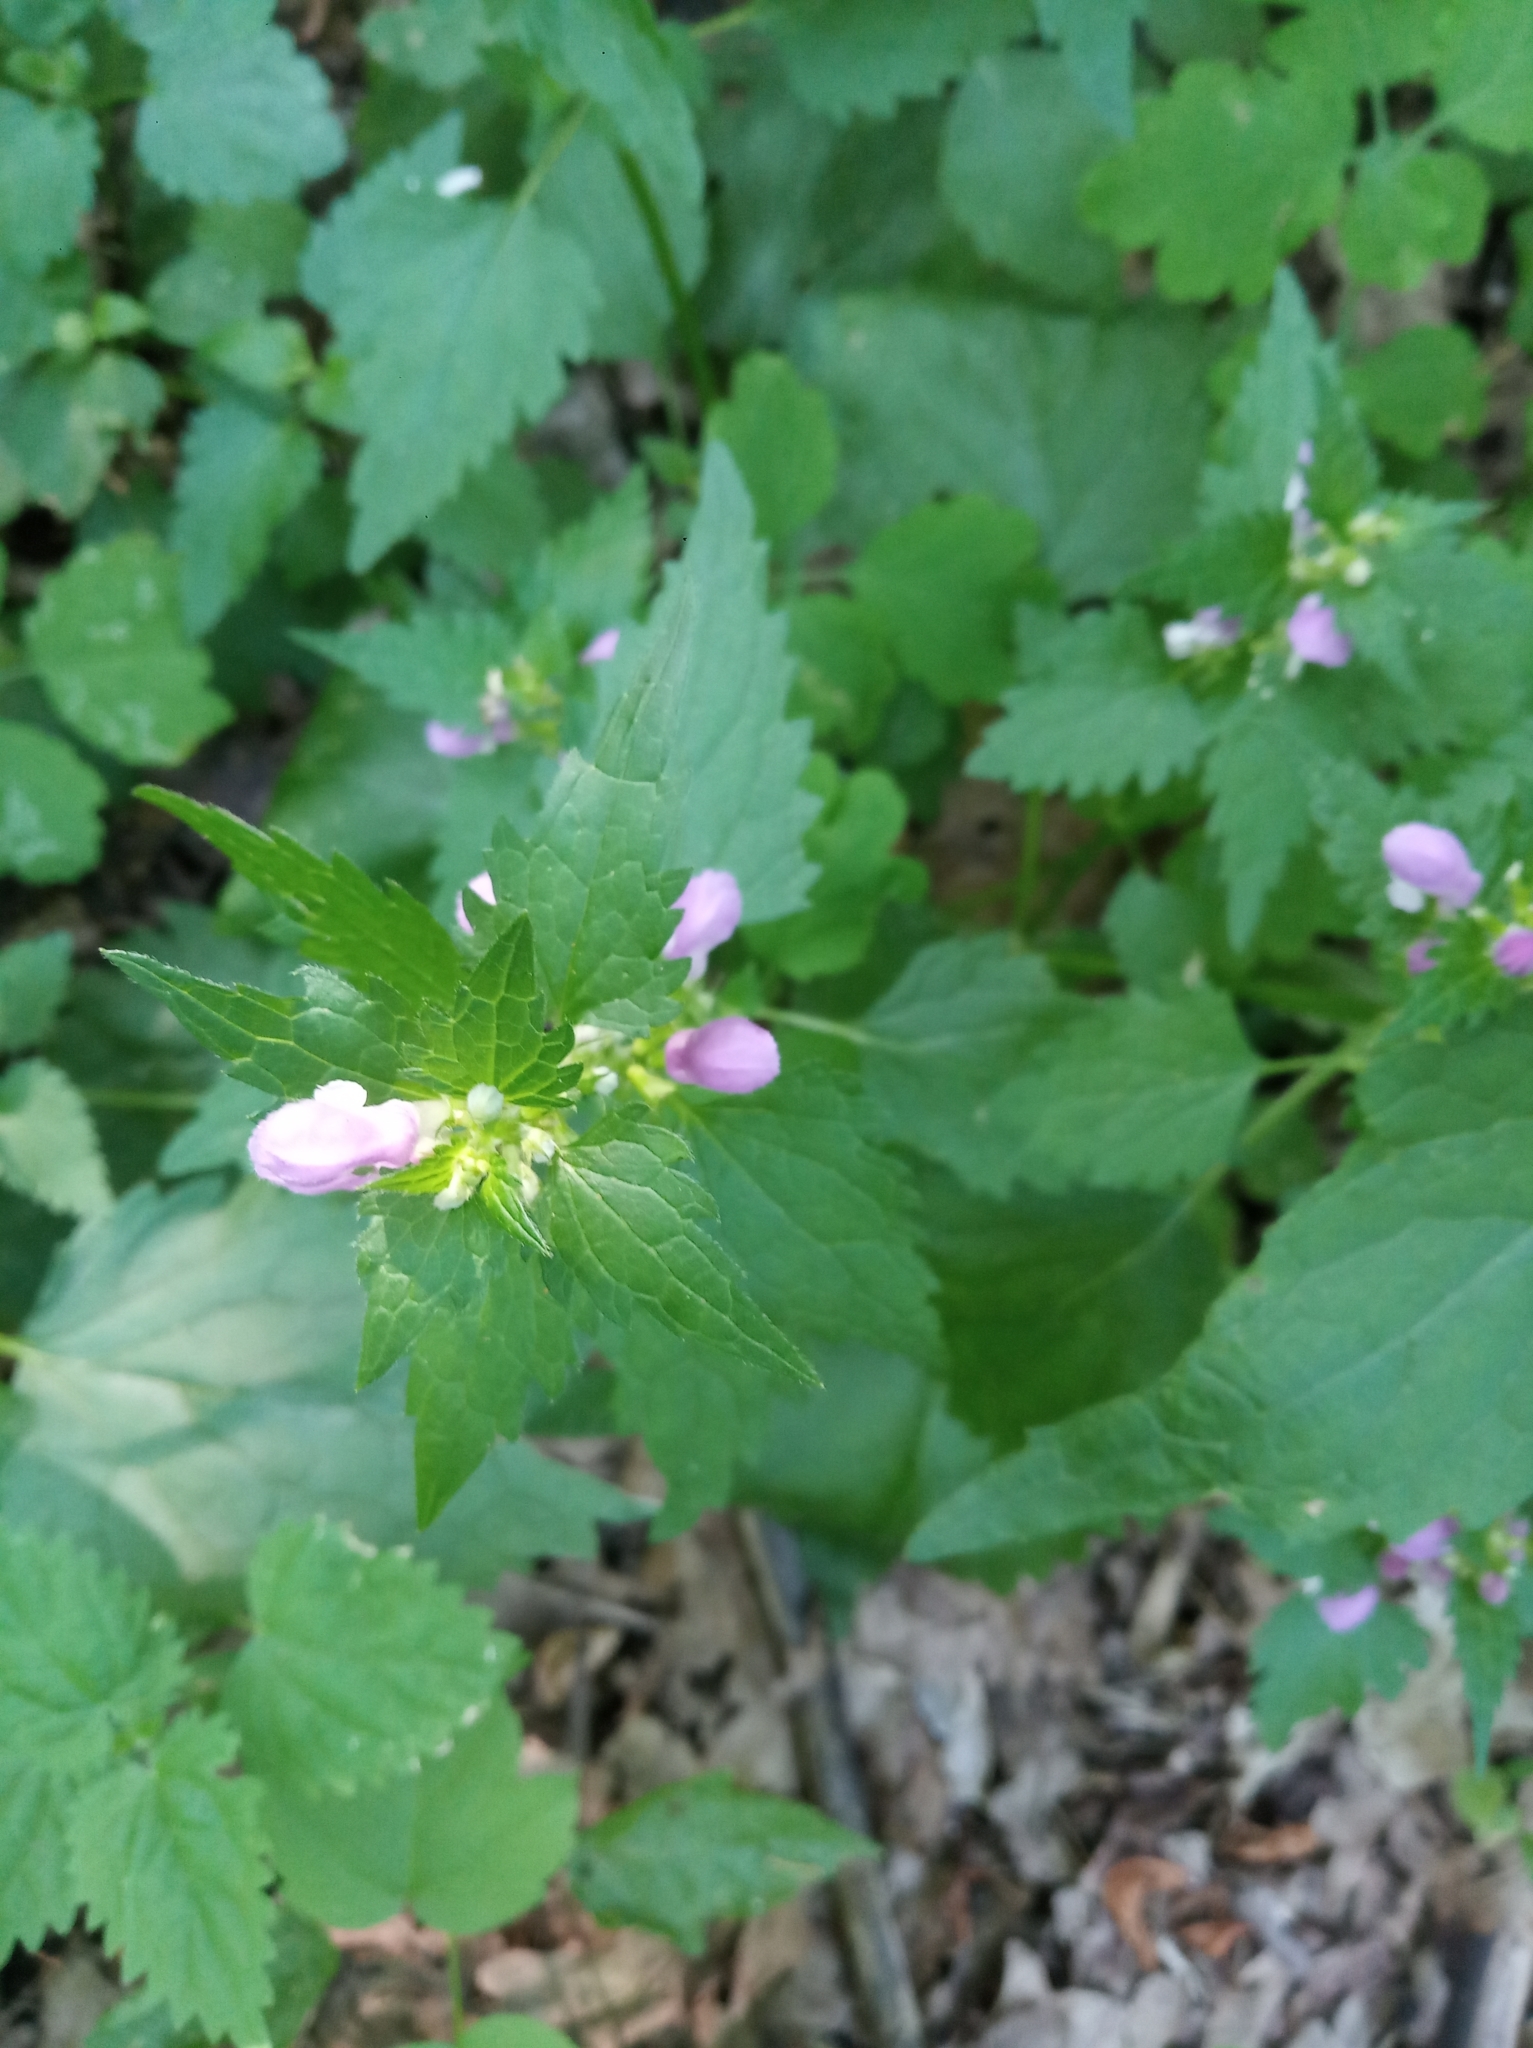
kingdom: Plantae
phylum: Tracheophyta
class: Magnoliopsida
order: Lamiales
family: Lamiaceae
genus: Lamium
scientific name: Lamium maculatum
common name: Spotted dead-nettle
